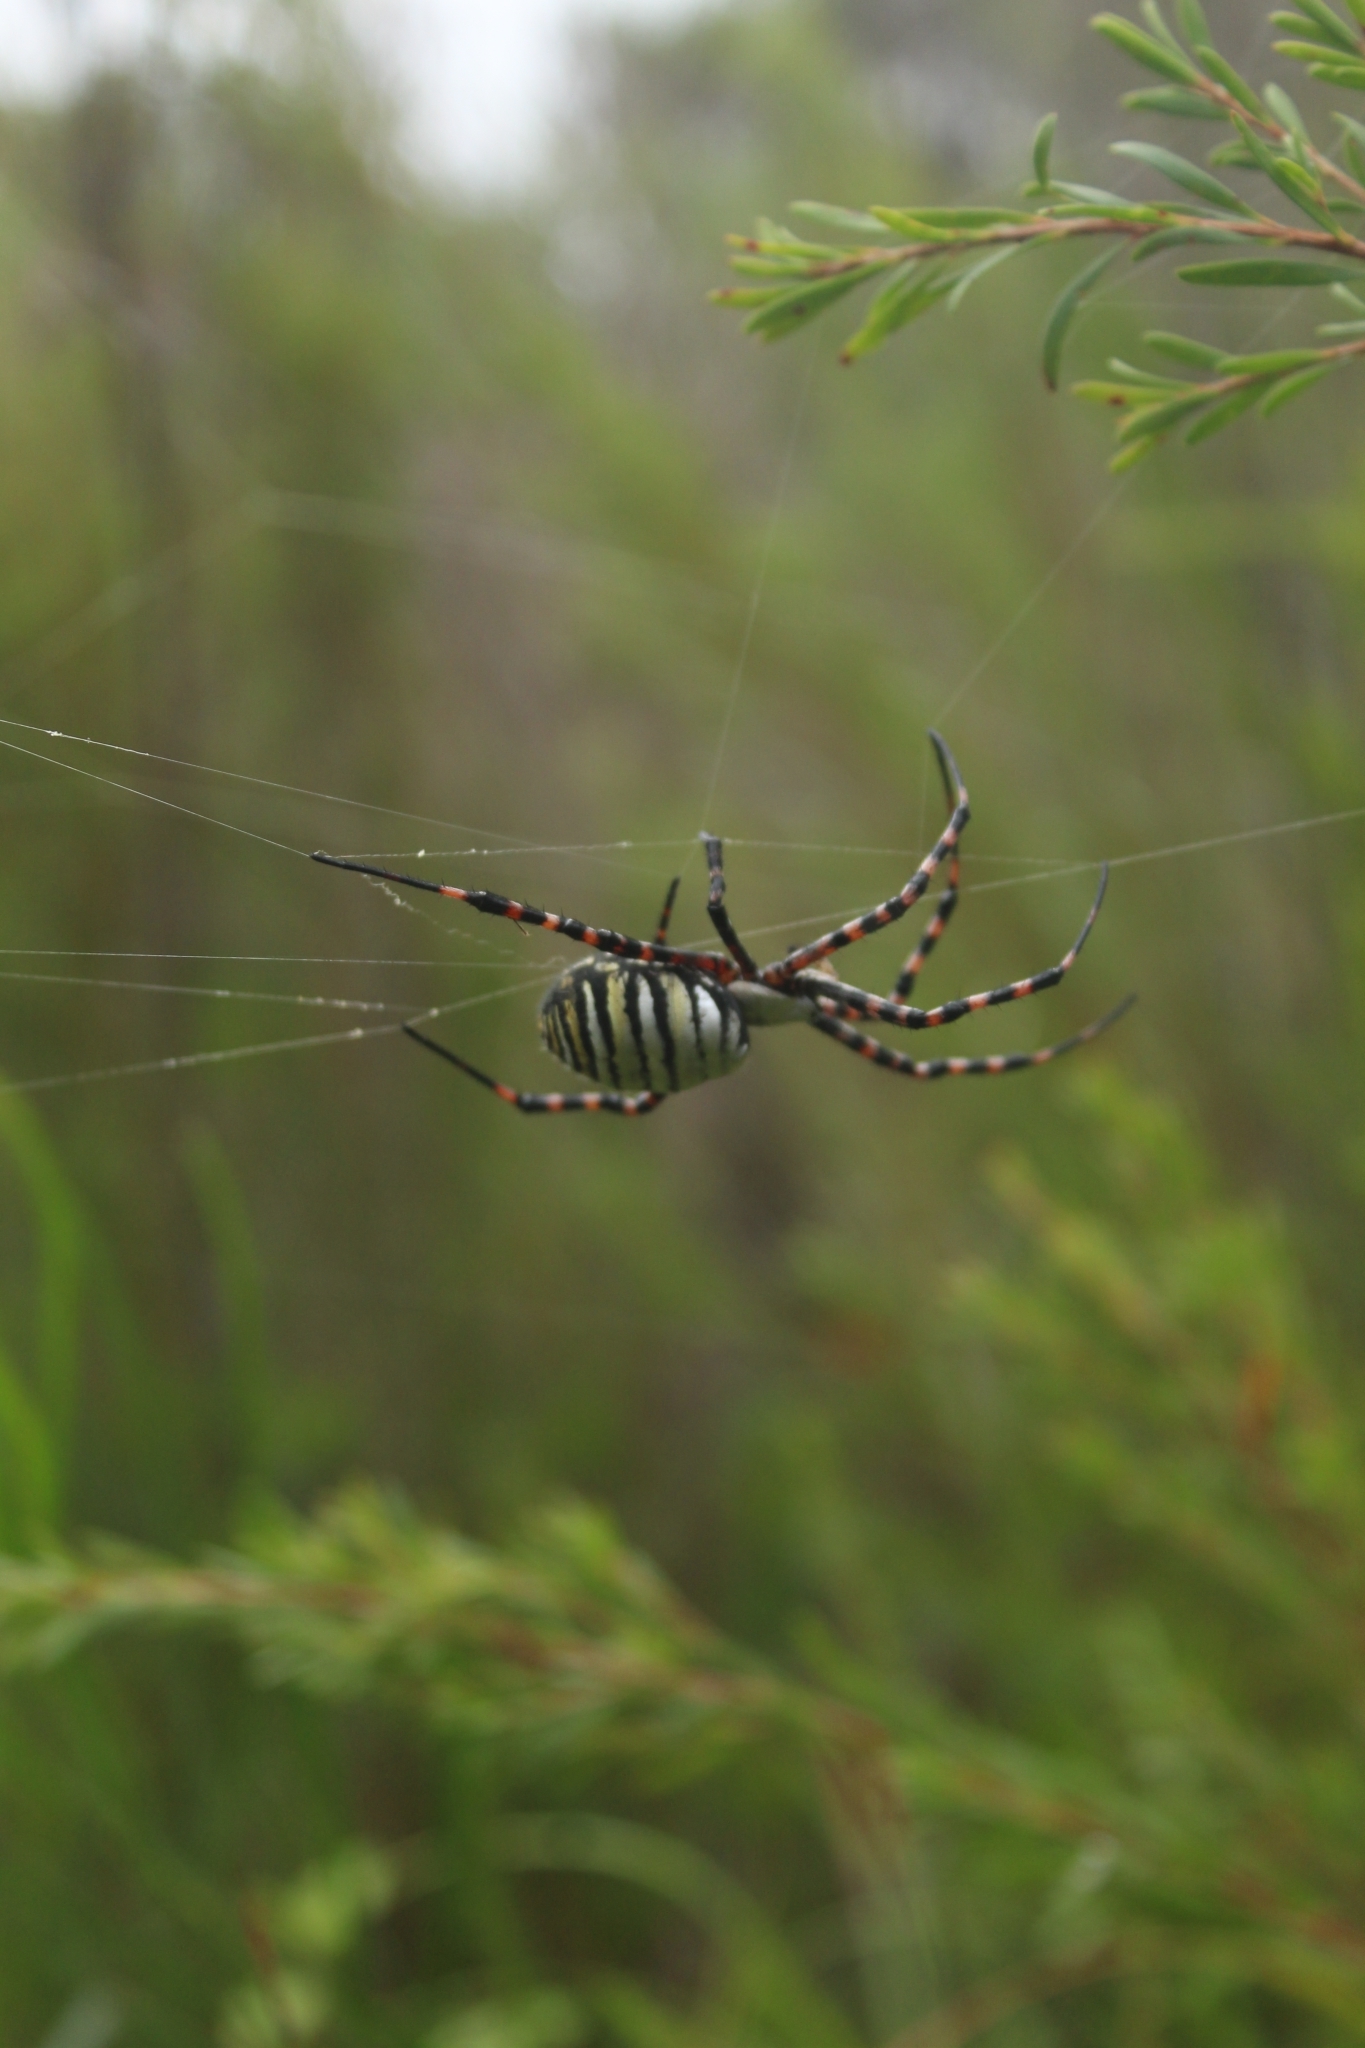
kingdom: Animalia
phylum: Arthropoda
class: Arachnida
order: Araneae
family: Araneidae
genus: Argiope
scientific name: Argiope trifasciata
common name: Banded garden spider
